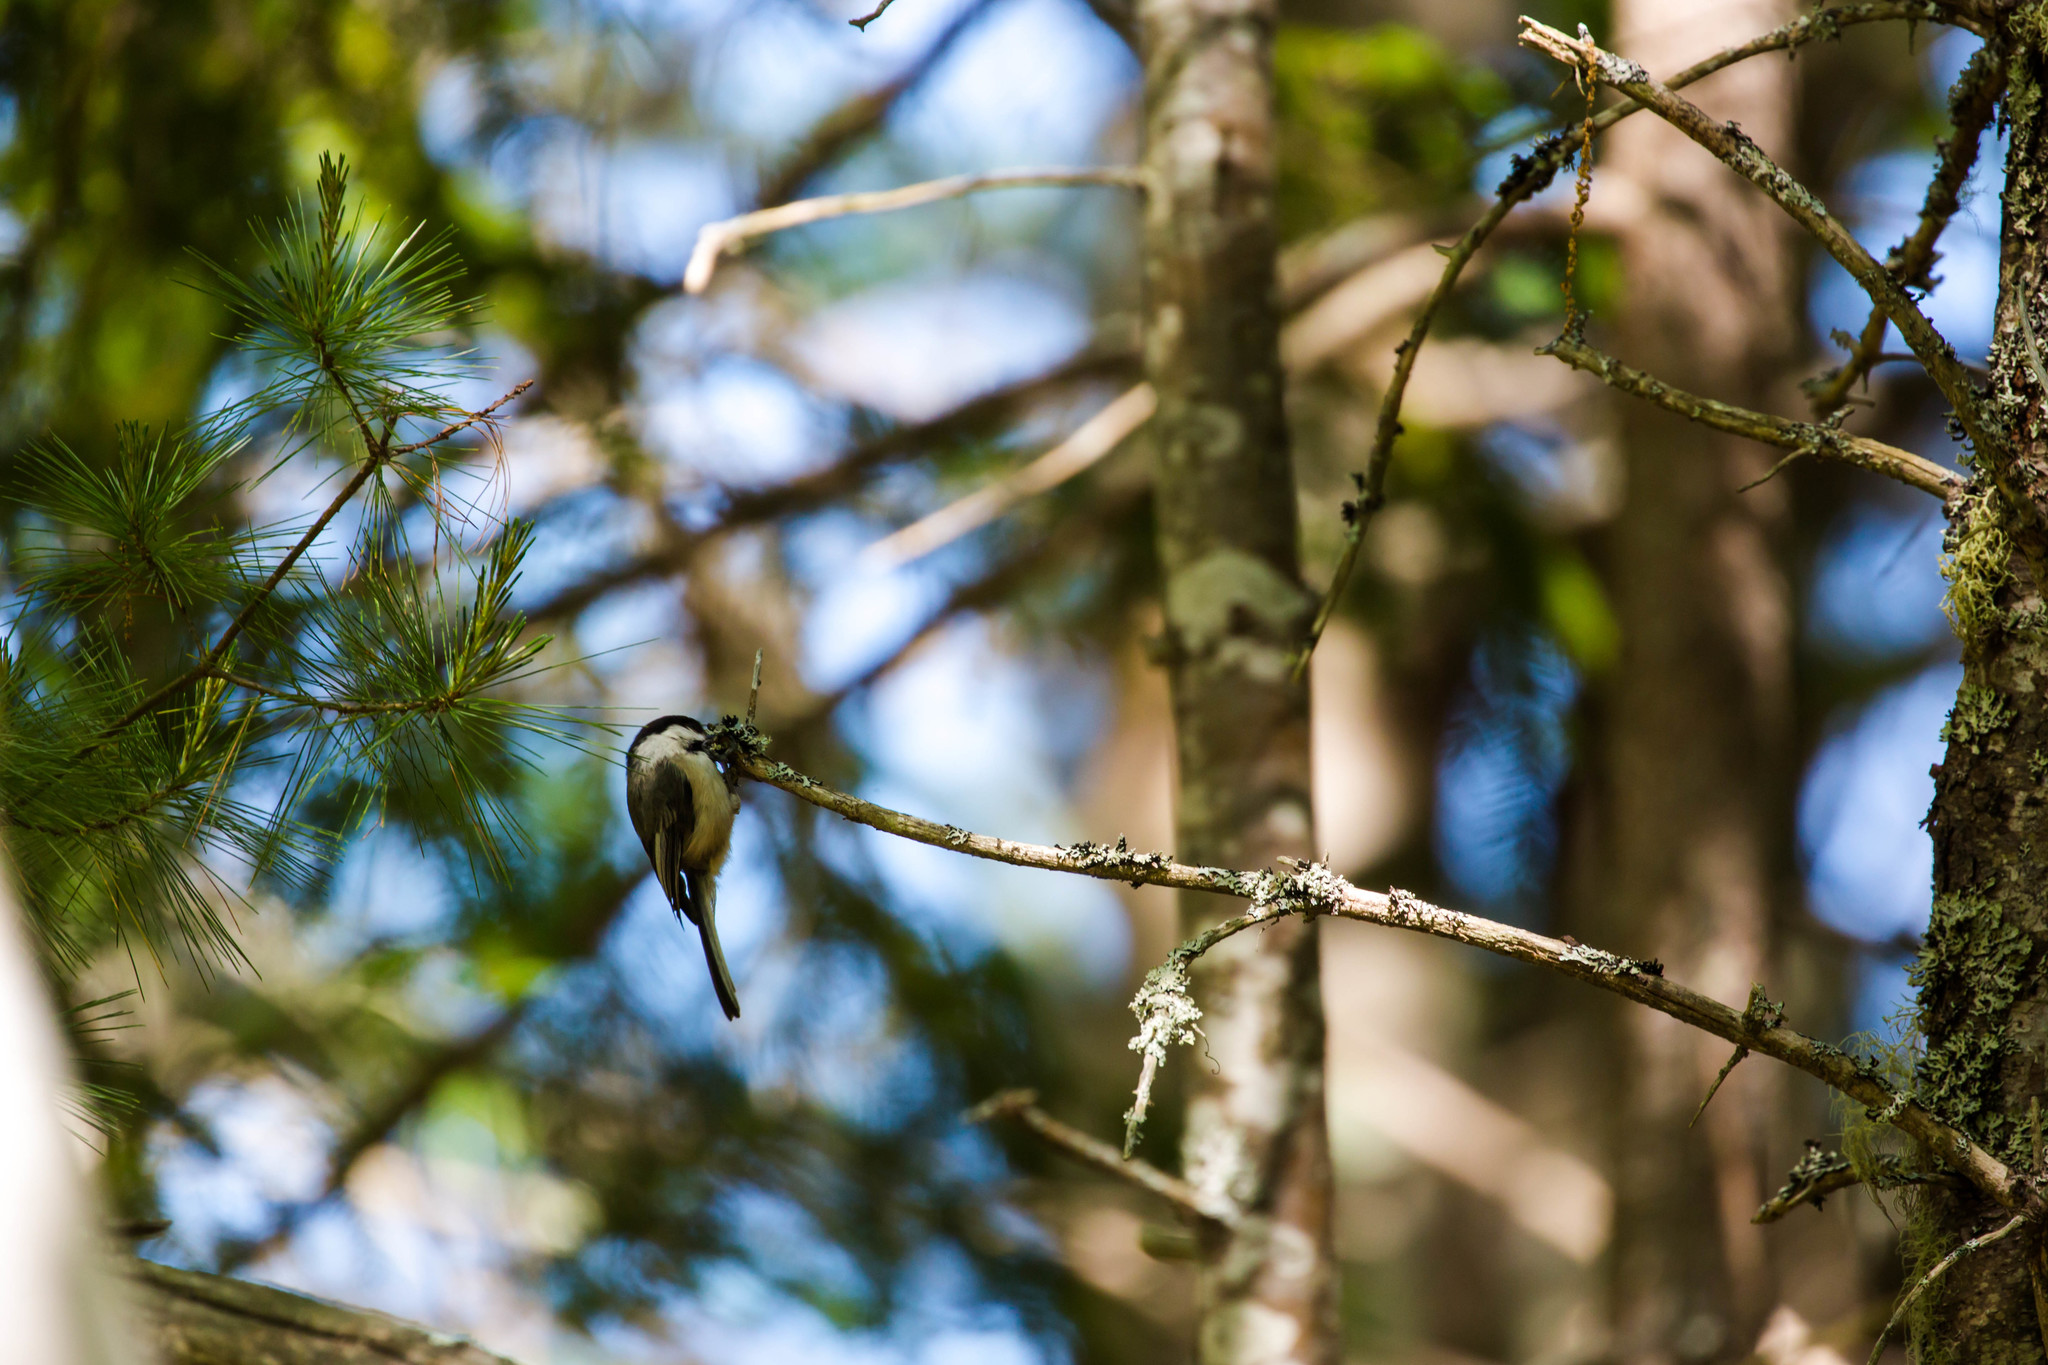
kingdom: Animalia
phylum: Chordata
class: Aves
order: Passeriformes
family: Paridae
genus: Poecile
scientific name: Poecile atricapillus
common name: Black-capped chickadee
